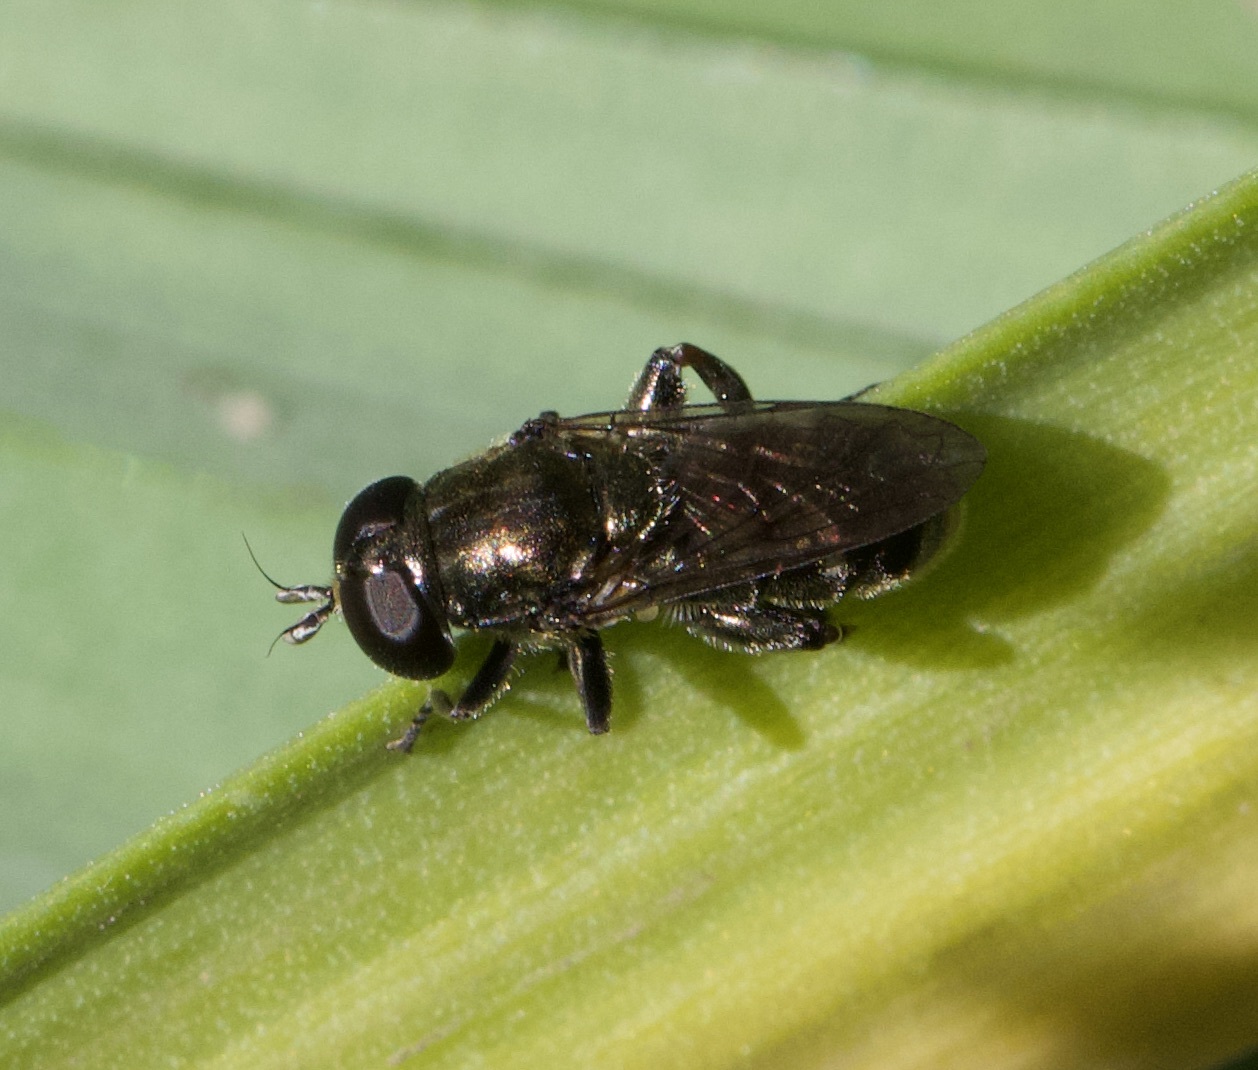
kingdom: Animalia
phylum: Arthropoda
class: Insecta
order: Diptera
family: Syrphidae
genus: Eumerus
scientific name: Eumerus
